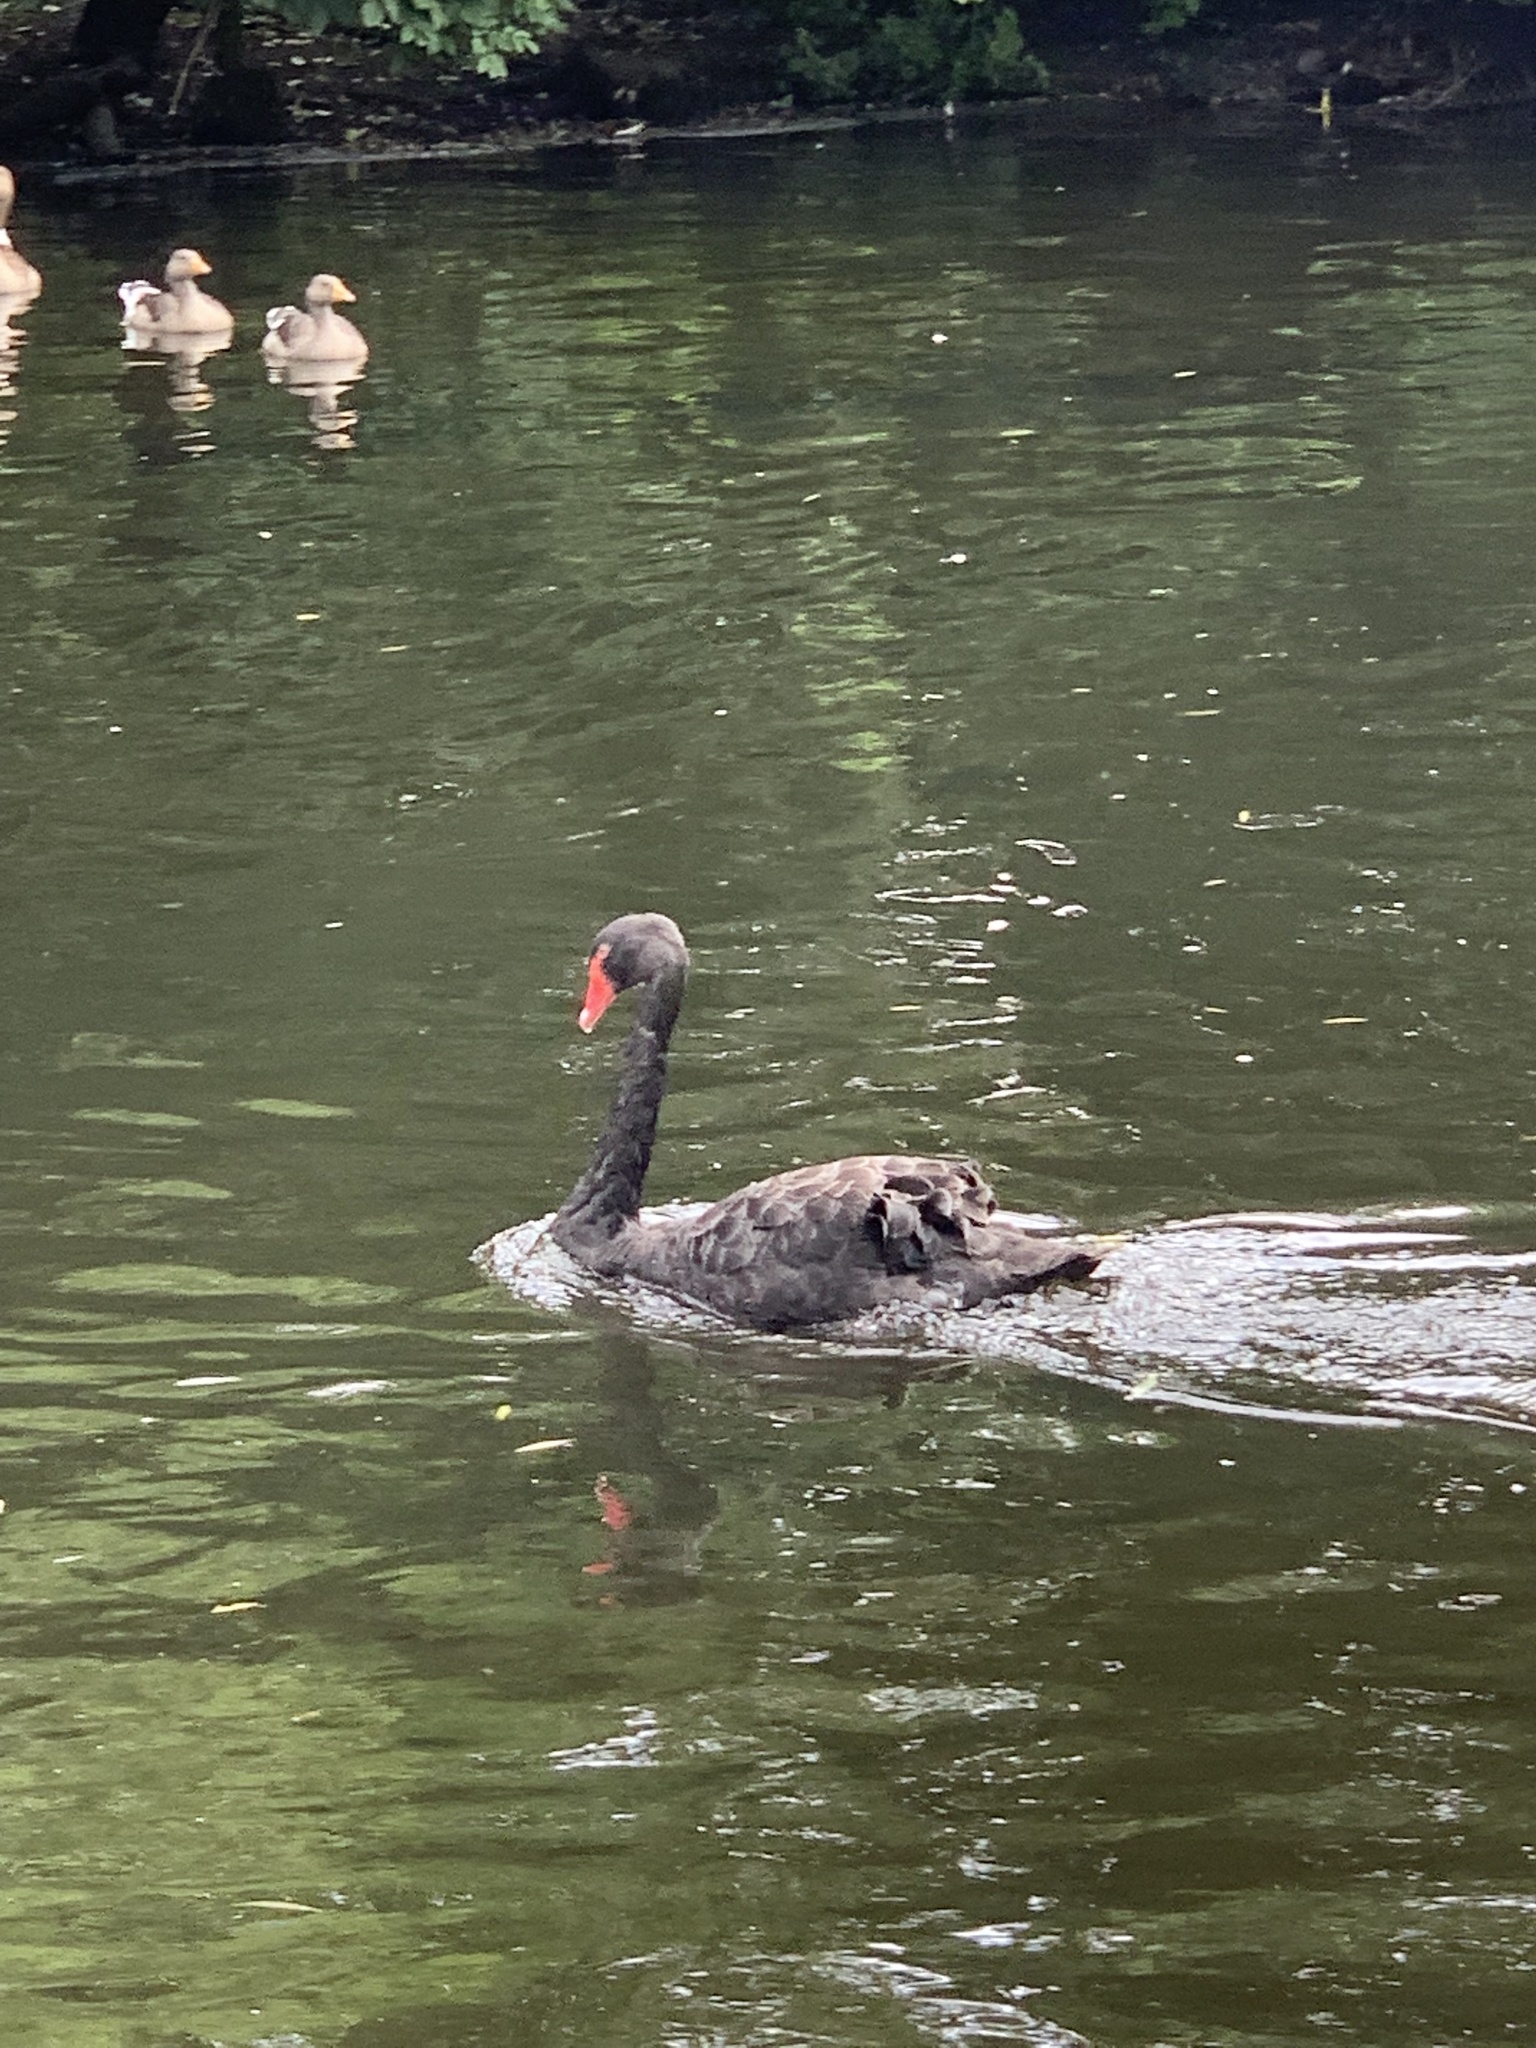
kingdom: Animalia
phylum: Chordata
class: Aves
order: Anseriformes
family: Anatidae
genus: Cygnus
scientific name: Cygnus atratus
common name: Black swan
